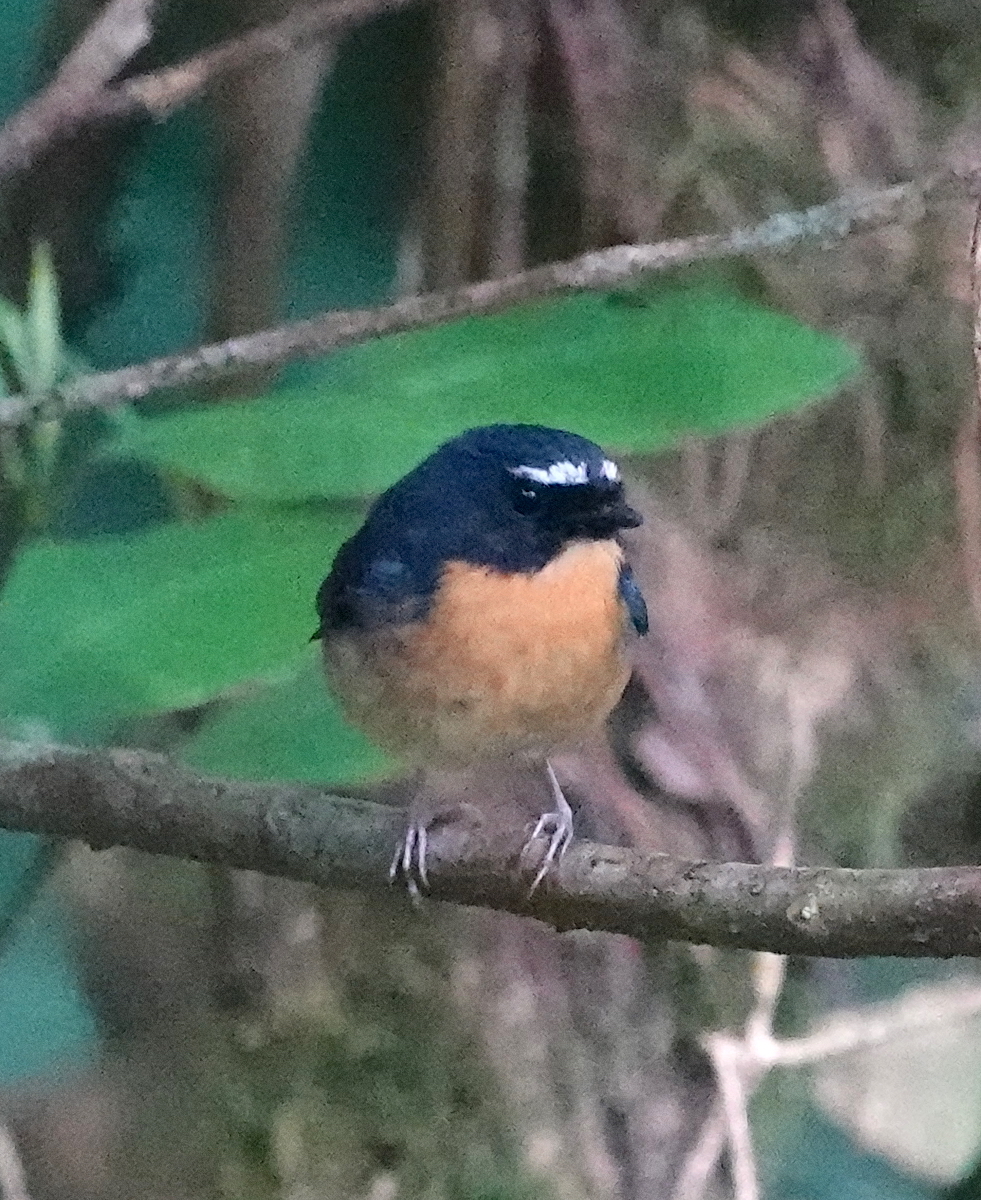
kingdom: Animalia
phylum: Chordata
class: Aves
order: Passeriformes
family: Muscicapidae
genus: Ficedula
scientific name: Ficedula hyperythra
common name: Snowy-browed flycatcher
